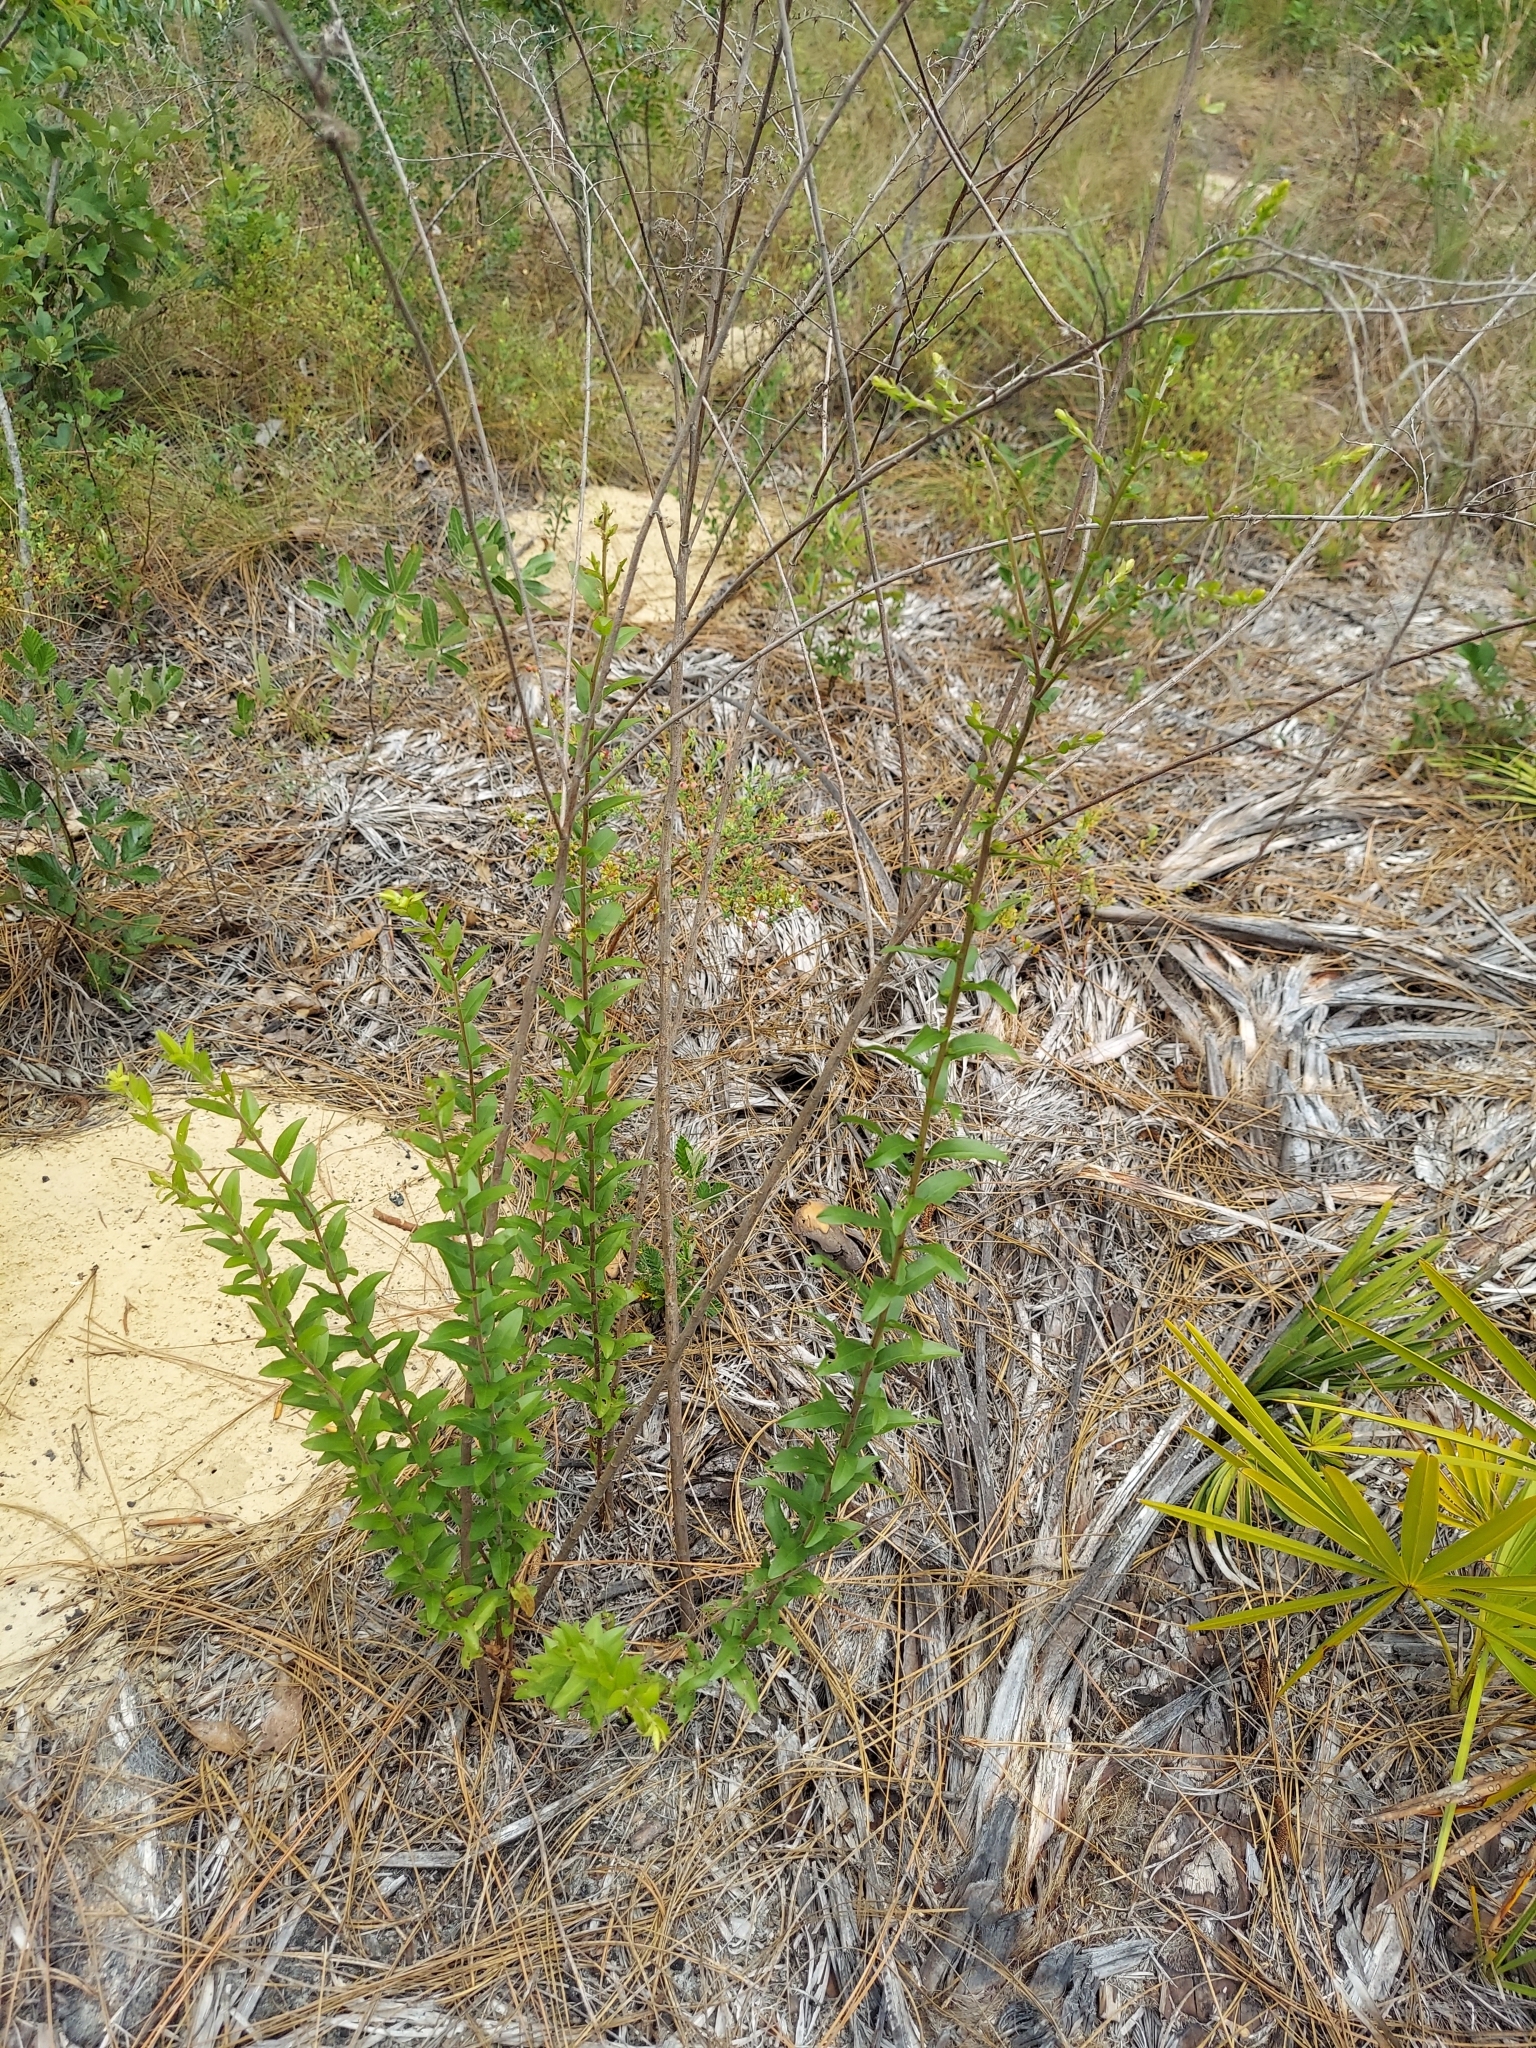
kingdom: Plantae
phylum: Tracheophyta
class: Magnoliopsida
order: Asterales
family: Asteraceae
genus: Solidago
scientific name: Solidago chapmanii
